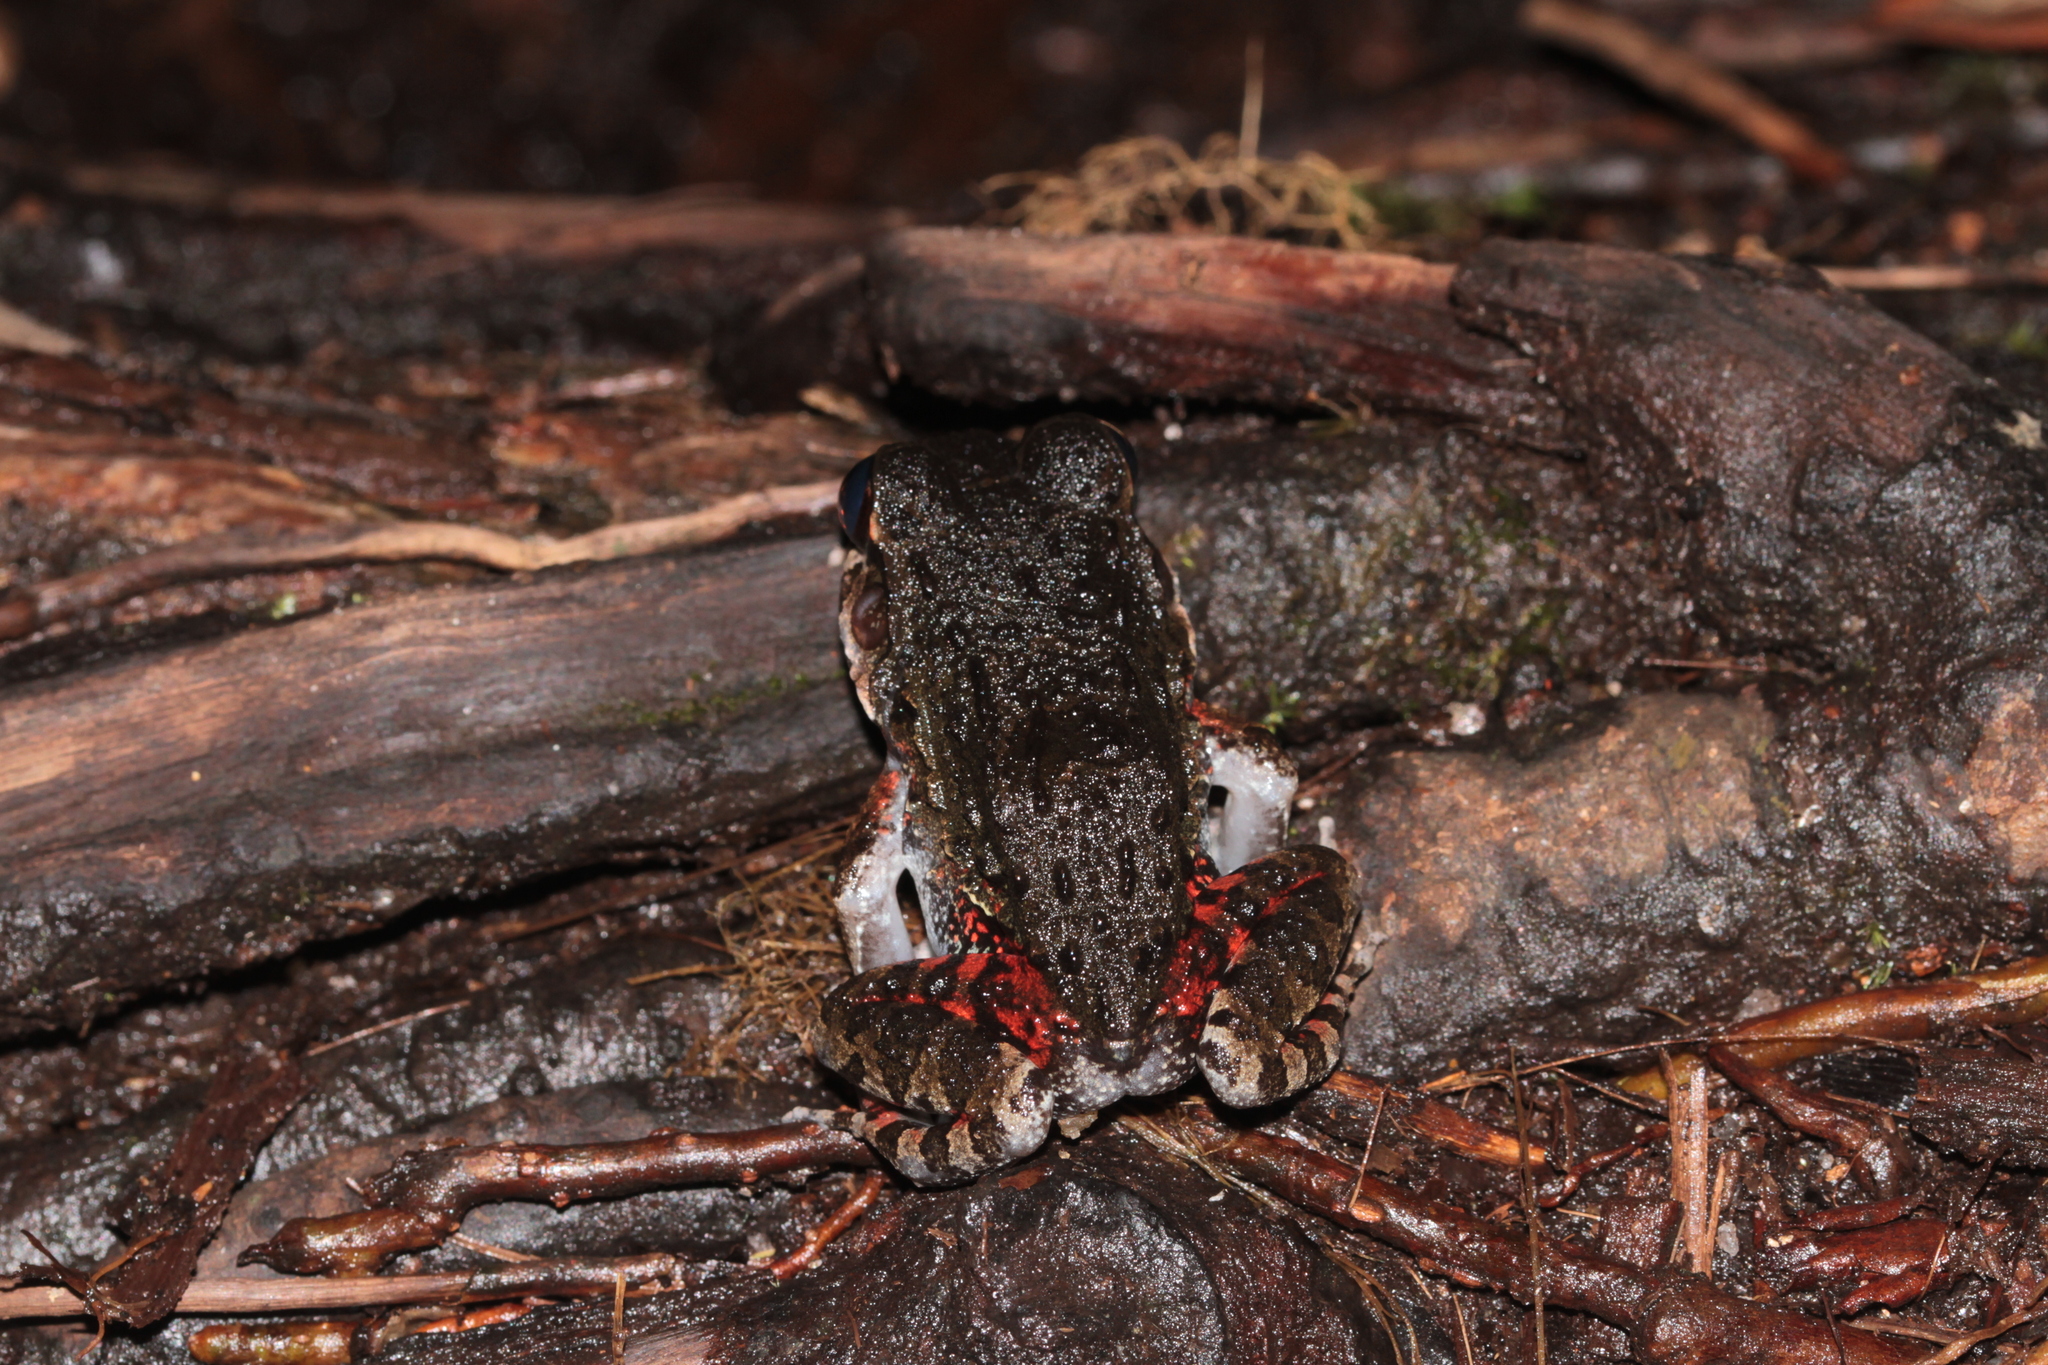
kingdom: Animalia
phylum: Chordata
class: Amphibia
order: Anura
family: Leptodactylidae
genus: Leptodactylus
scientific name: Leptodactylus myersi
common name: Myers' thin-toed frog
